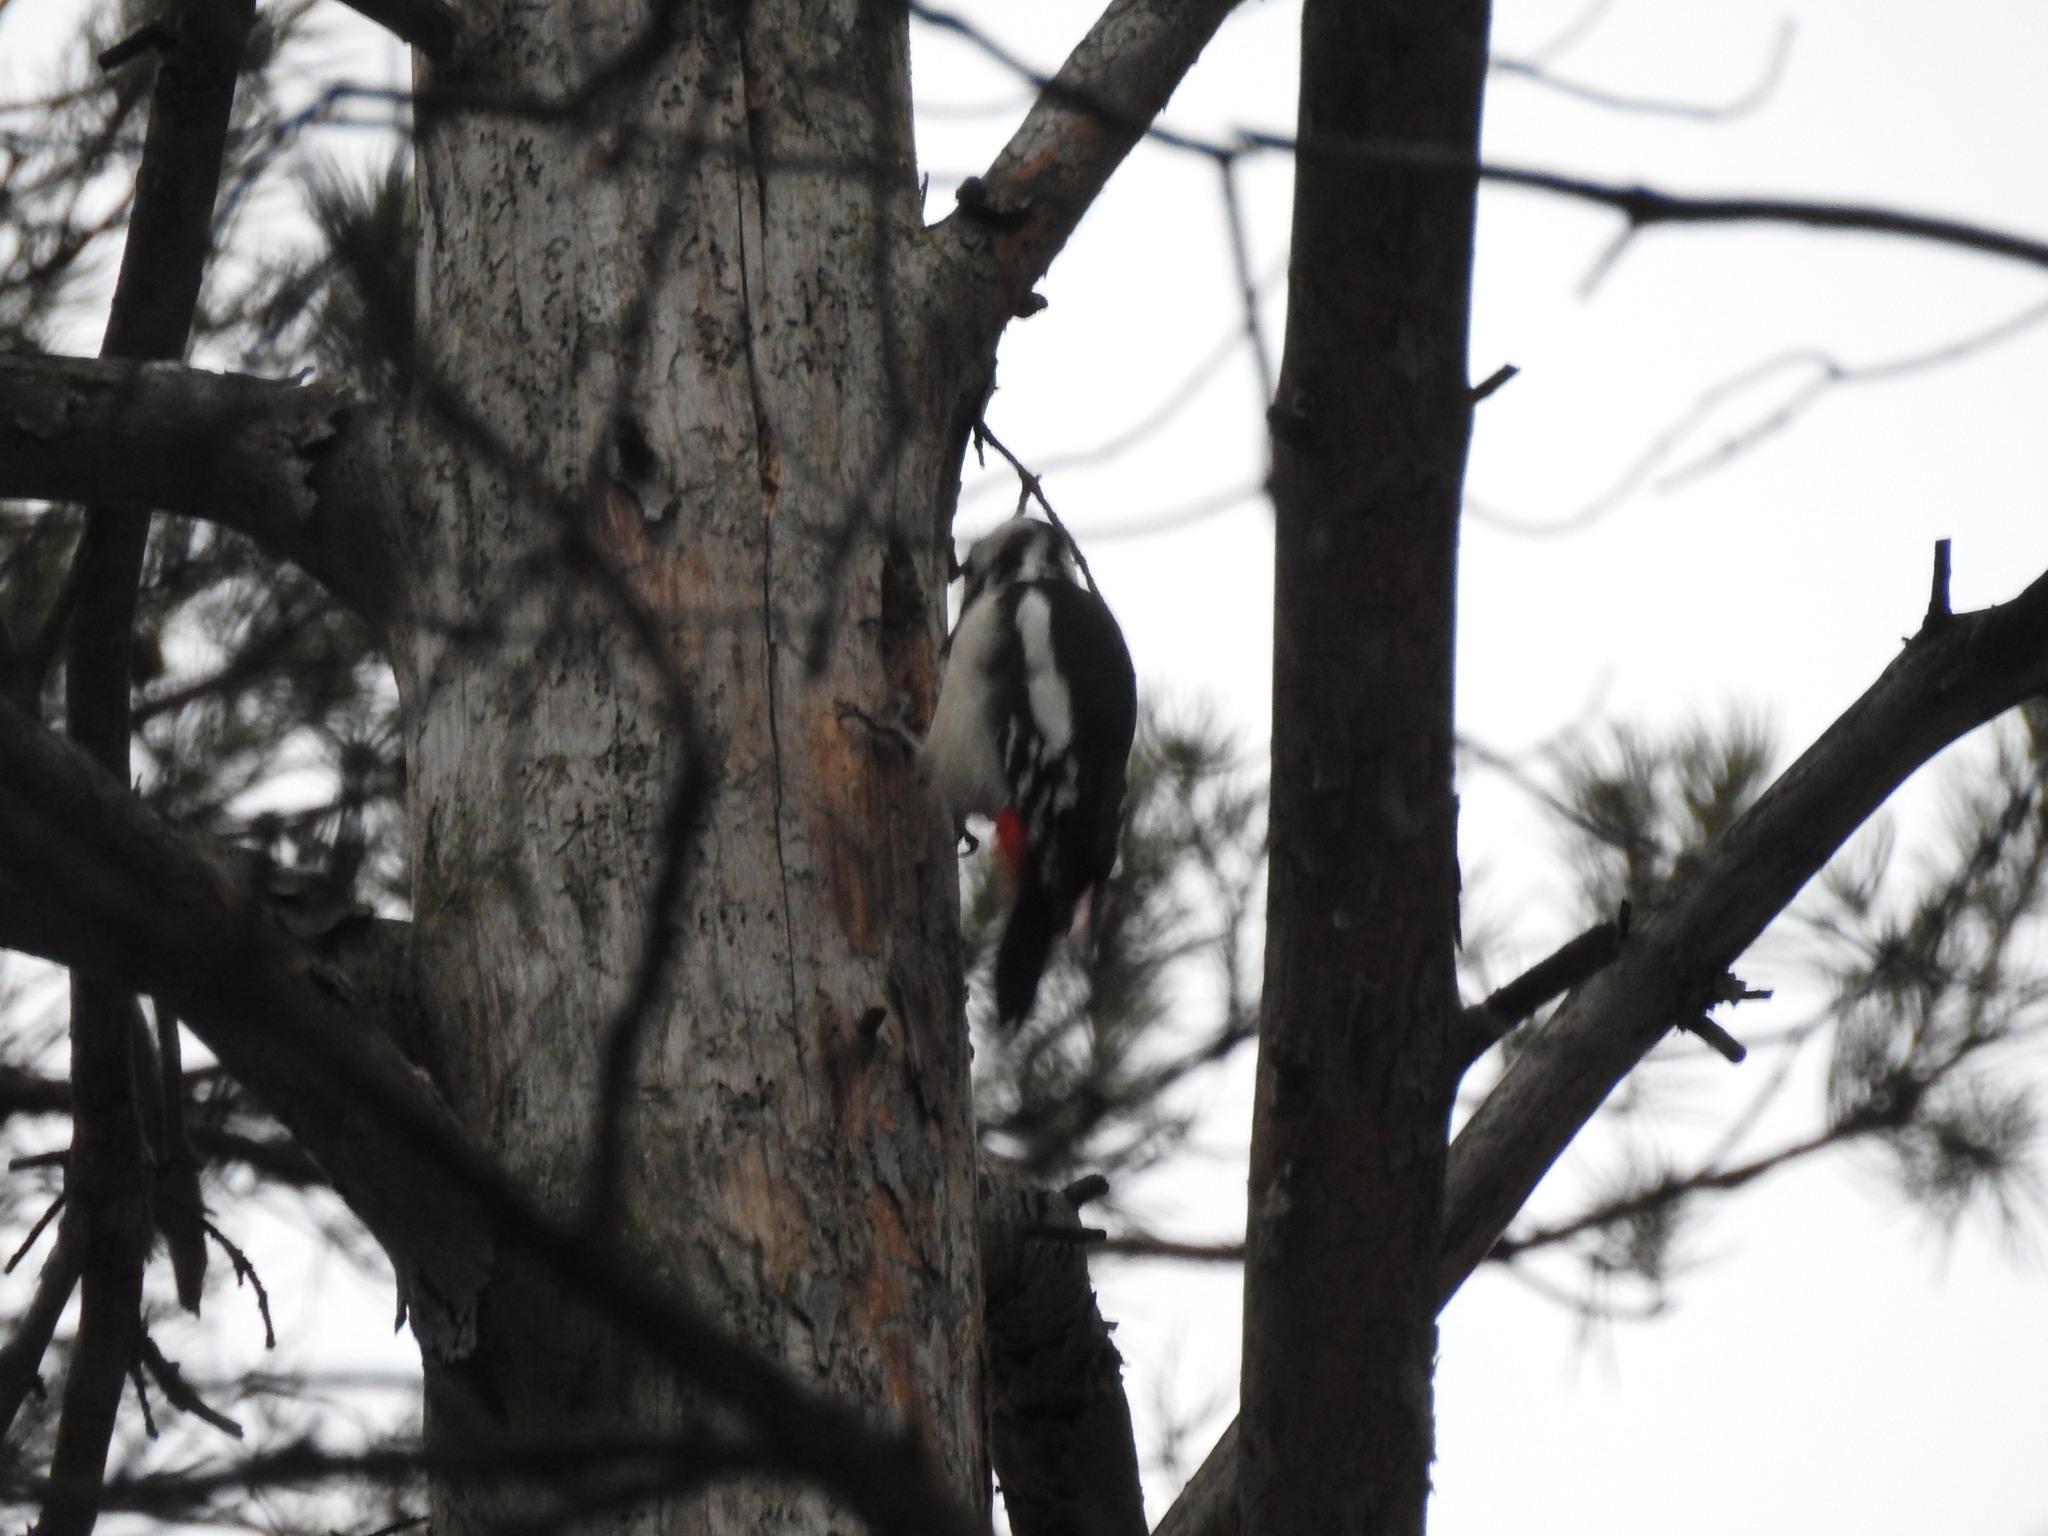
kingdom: Animalia
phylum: Chordata
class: Aves
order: Piciformes
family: Picidae
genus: Dendrocopos
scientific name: Dendrocopos major
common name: Great spotted woodpecker
